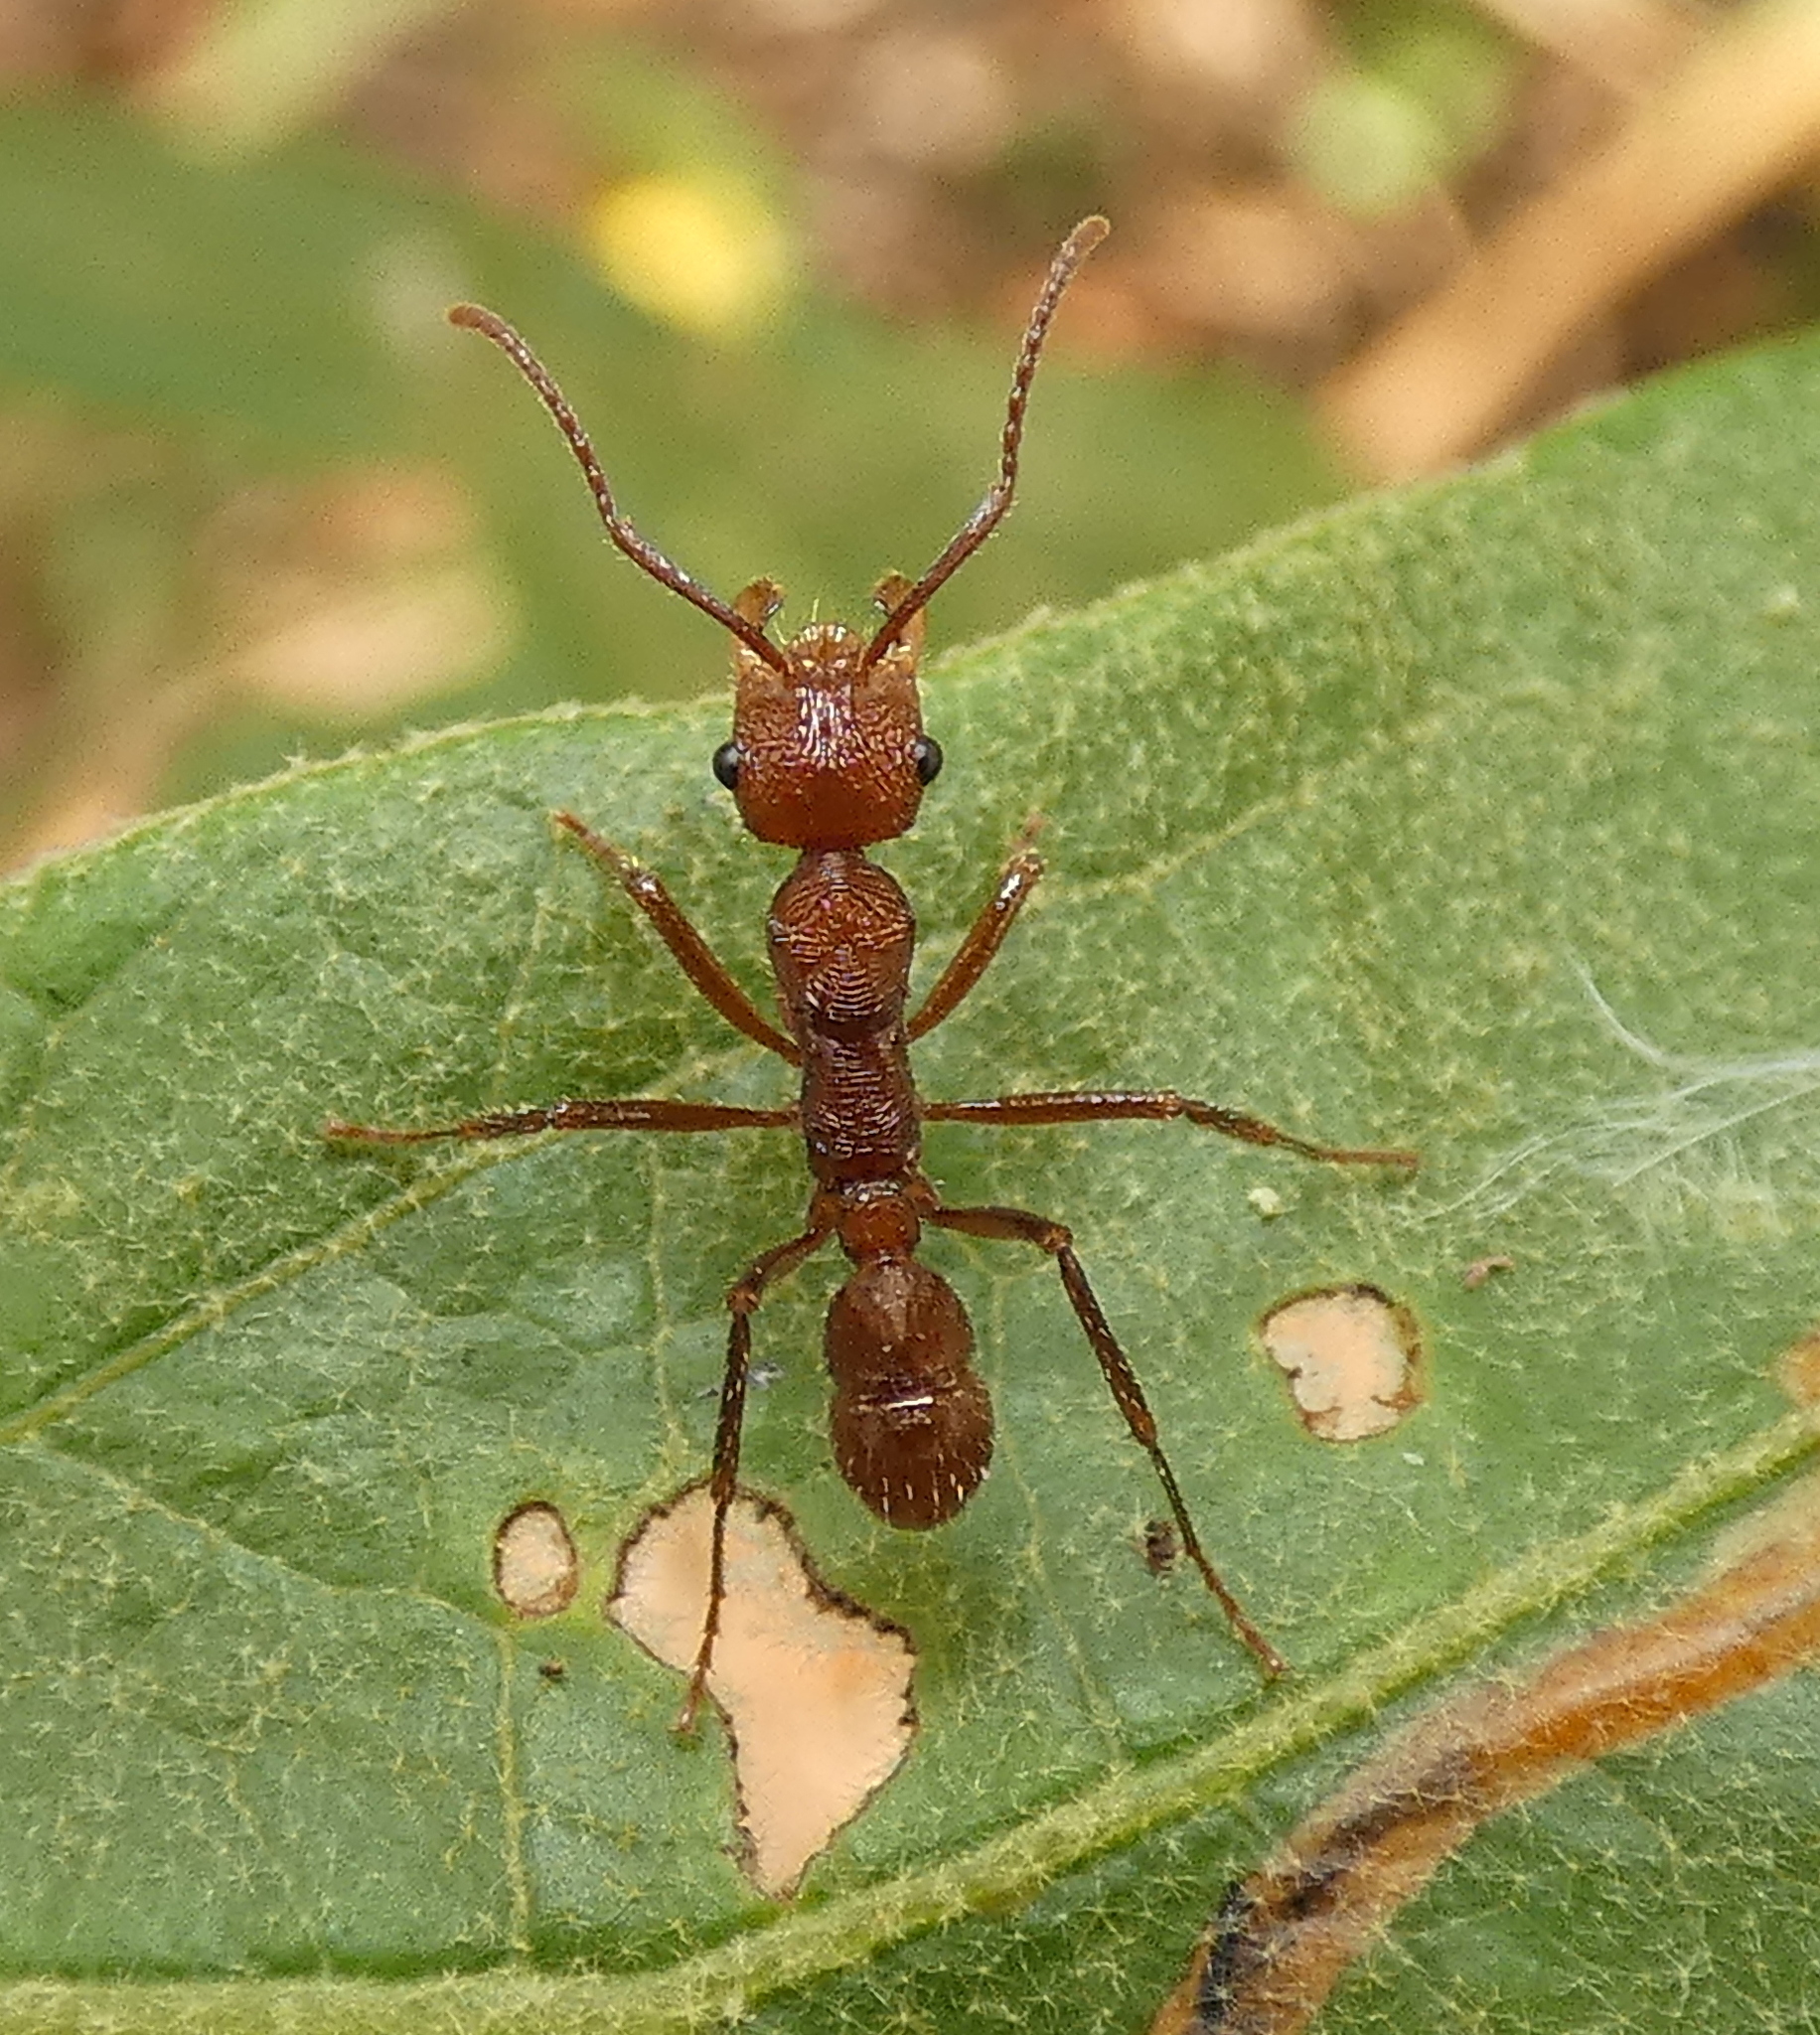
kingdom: Animalia
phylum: Arthropoda
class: Insecta
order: Hymenoptera
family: Formicidae
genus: Ectatomma
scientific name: Ectatomma tuberculatum
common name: Ant
